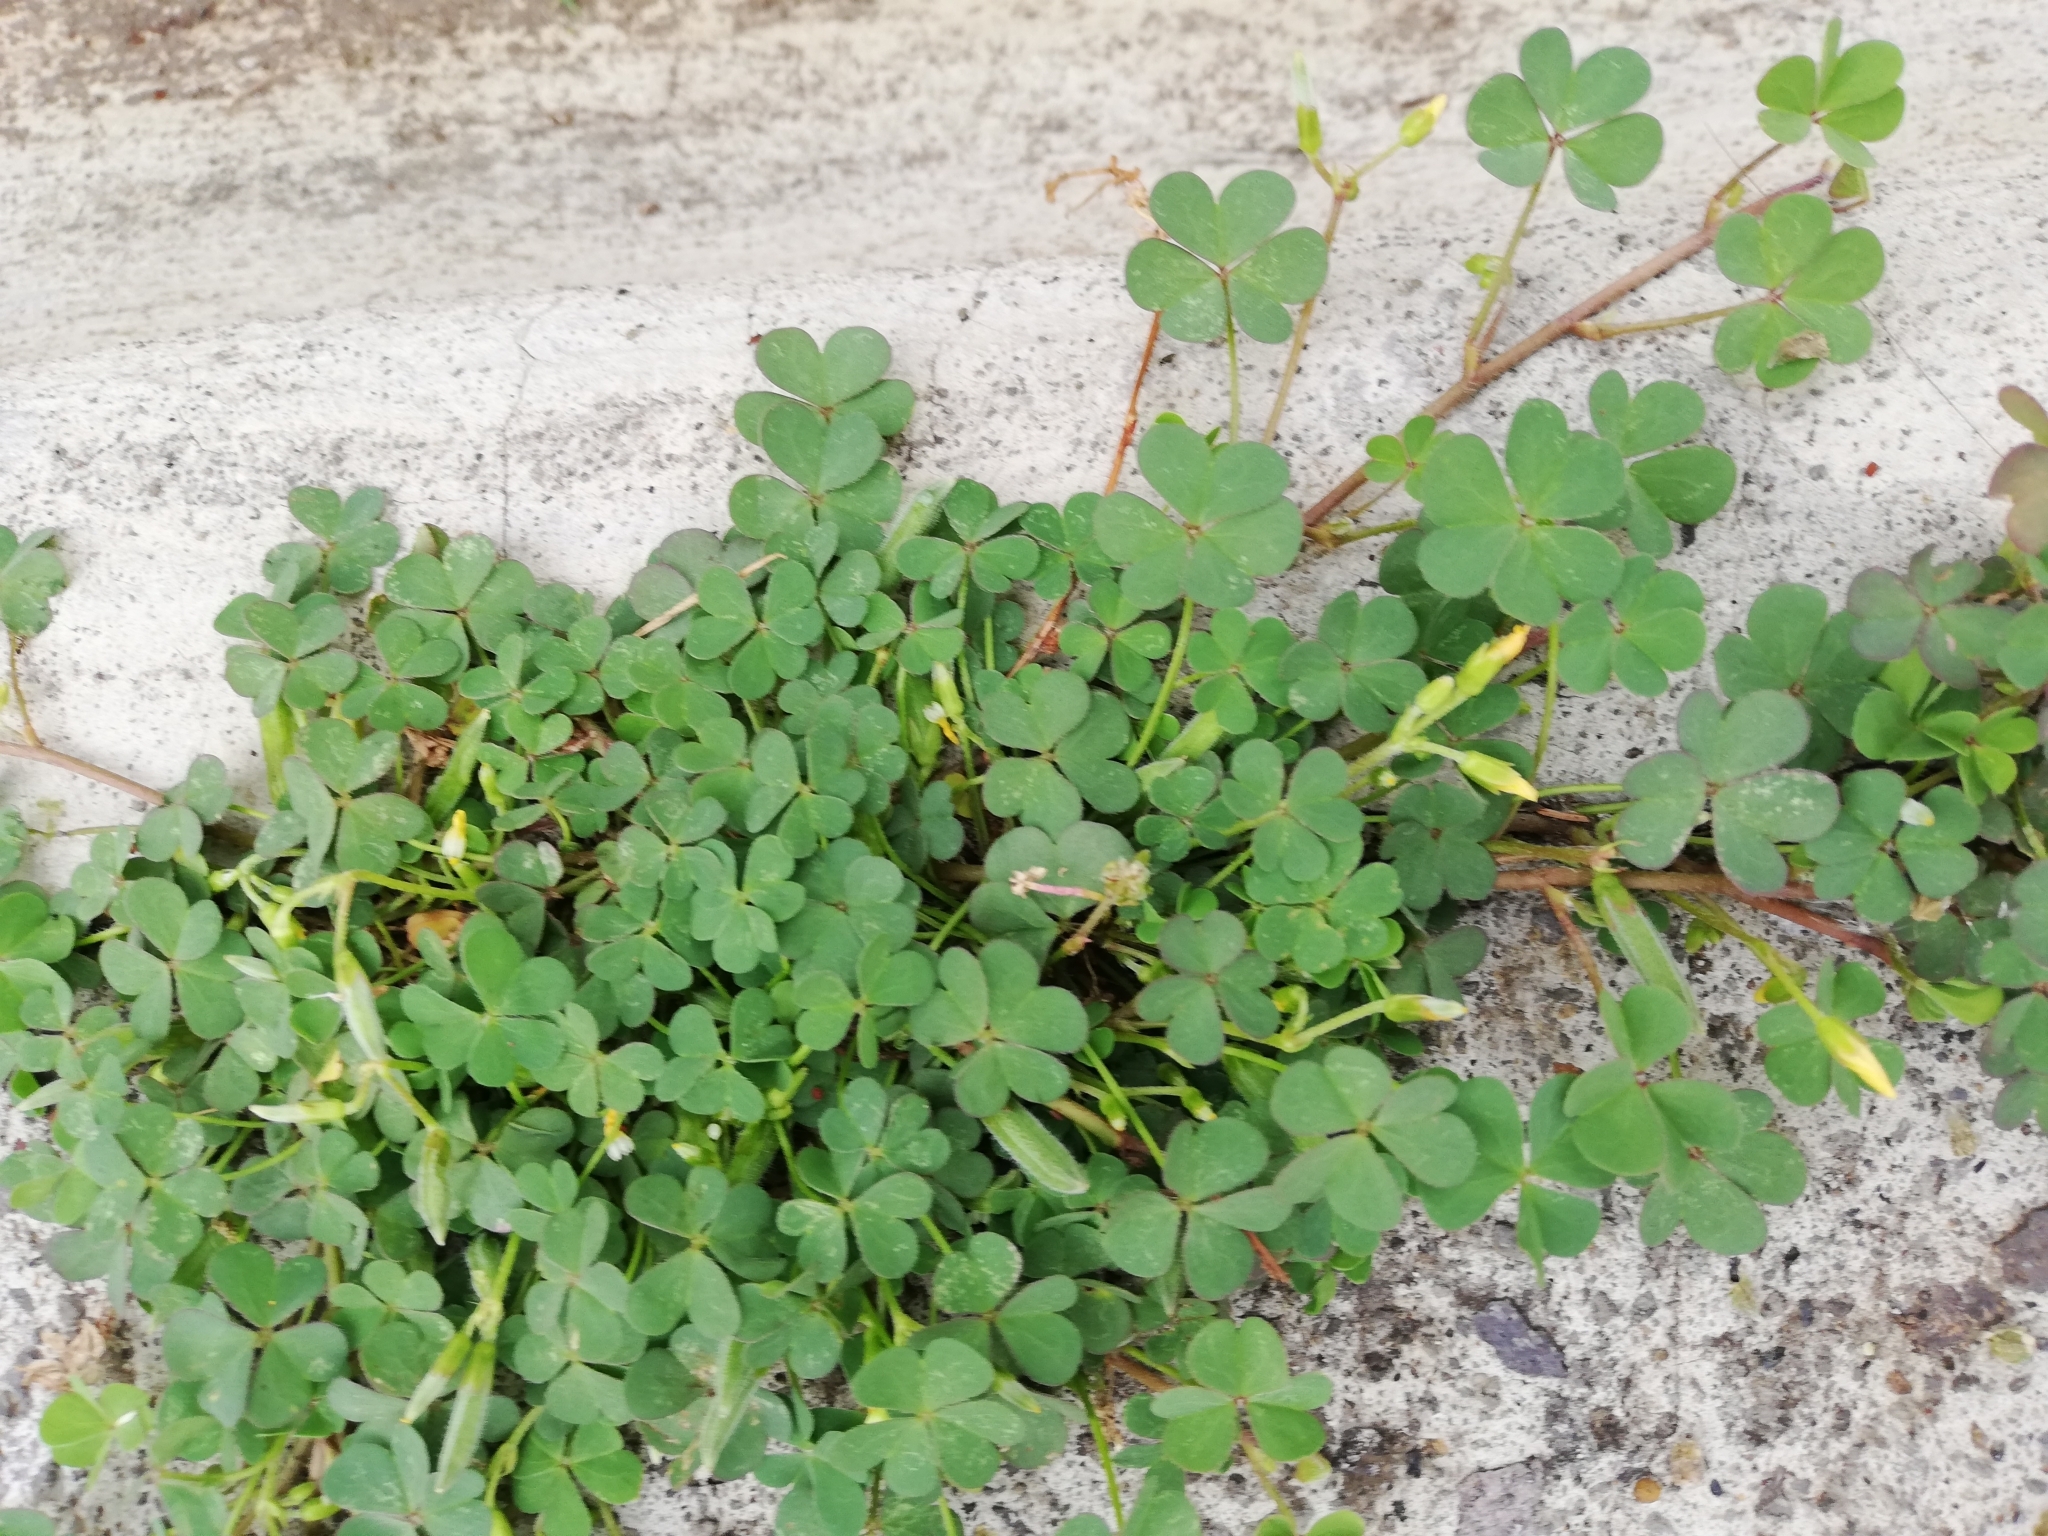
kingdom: Plantae
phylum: Tracheophyta
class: Magnoliopsida
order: Oxalidales
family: Oxalidaceae
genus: Oxalis
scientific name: Oxalis corniculata
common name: Procumbent yellow-sorrel
